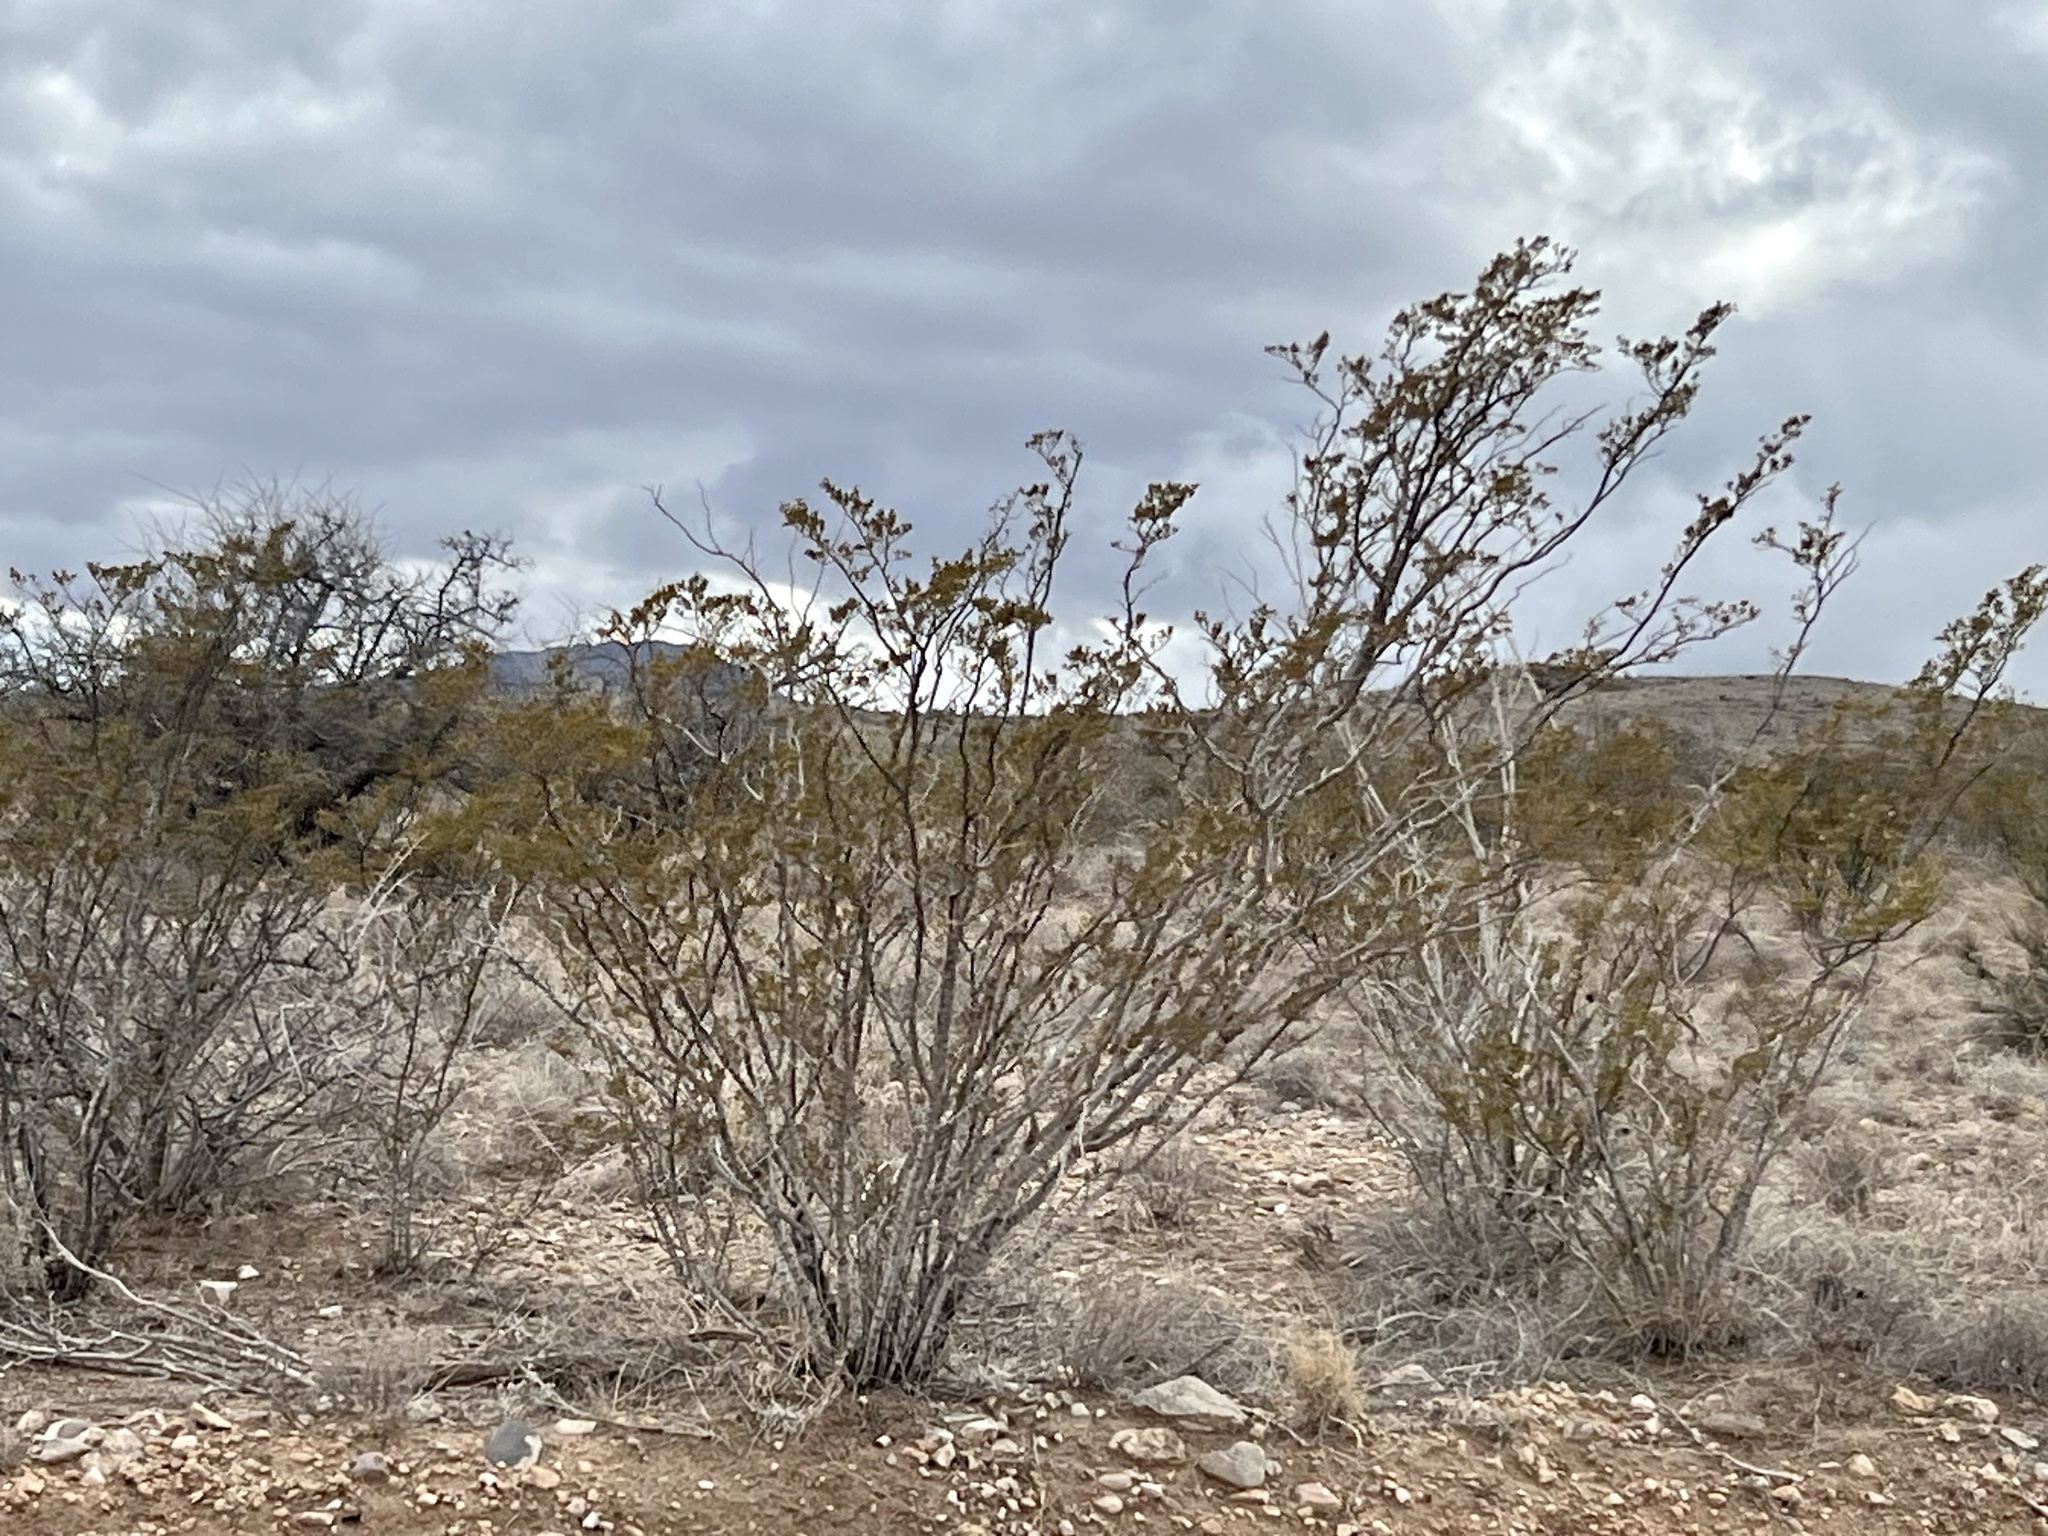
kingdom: Plantae
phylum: Tracheophyta
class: Magnoliopsida
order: Zygophyllales
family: Zygophyllaceae
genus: Larrea
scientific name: Larrea tridentata
